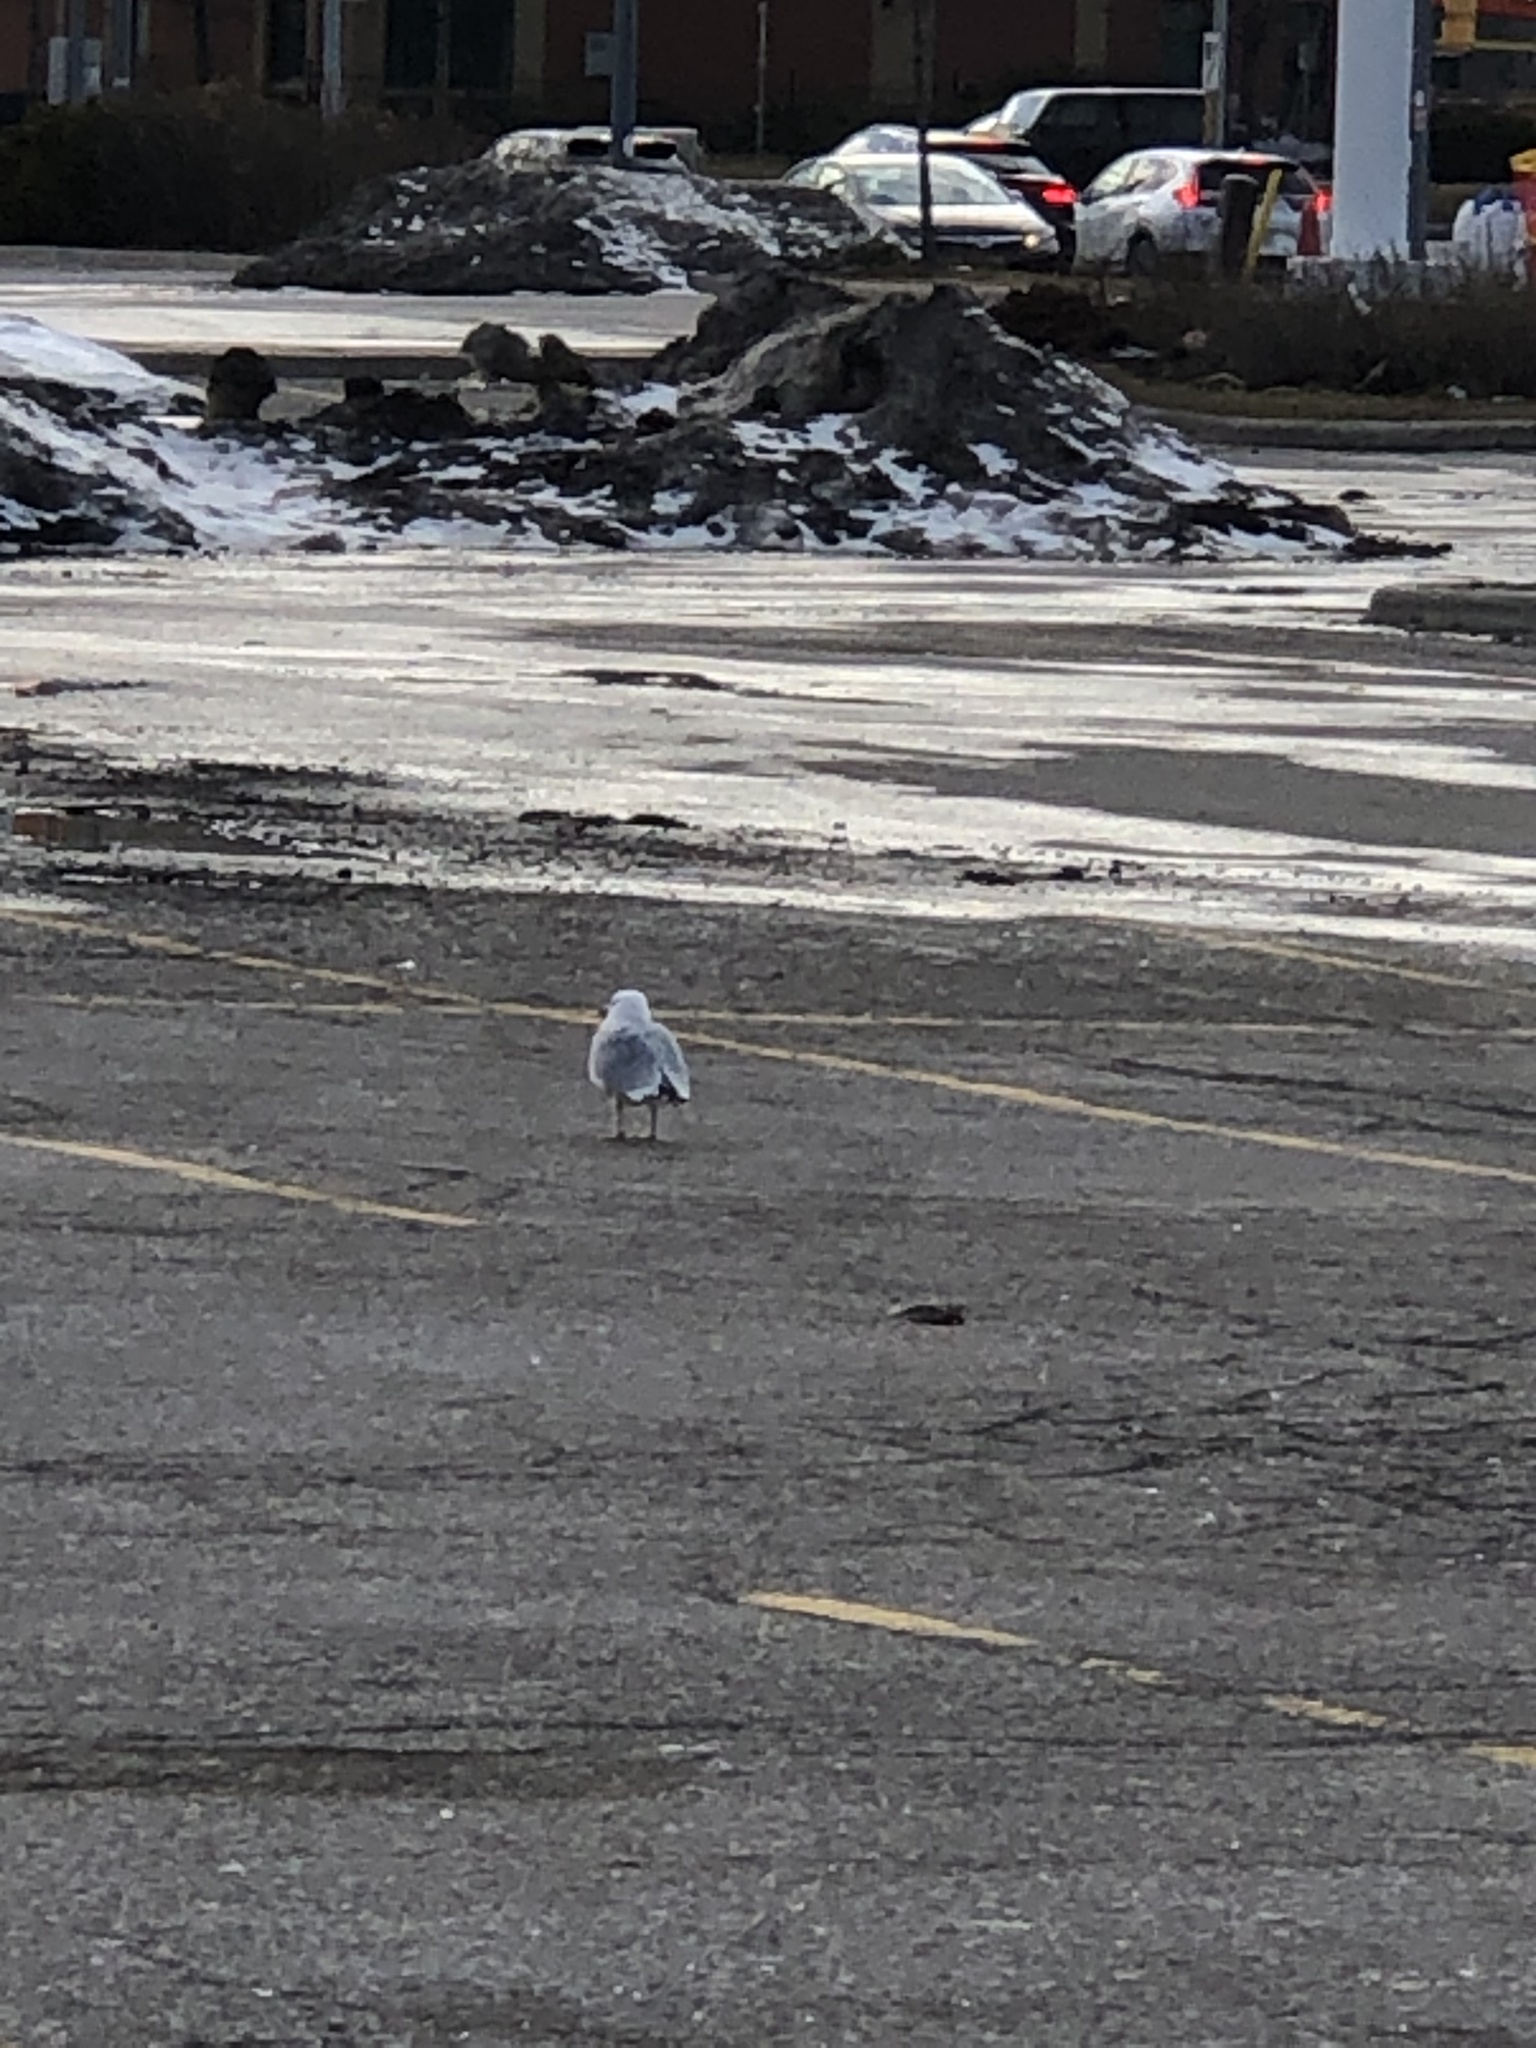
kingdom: Animalia
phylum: Chordata
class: Aves
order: Charadriiformes
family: Laridae
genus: Larus
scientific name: Larus delawarensis
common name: Ring-billed gull
